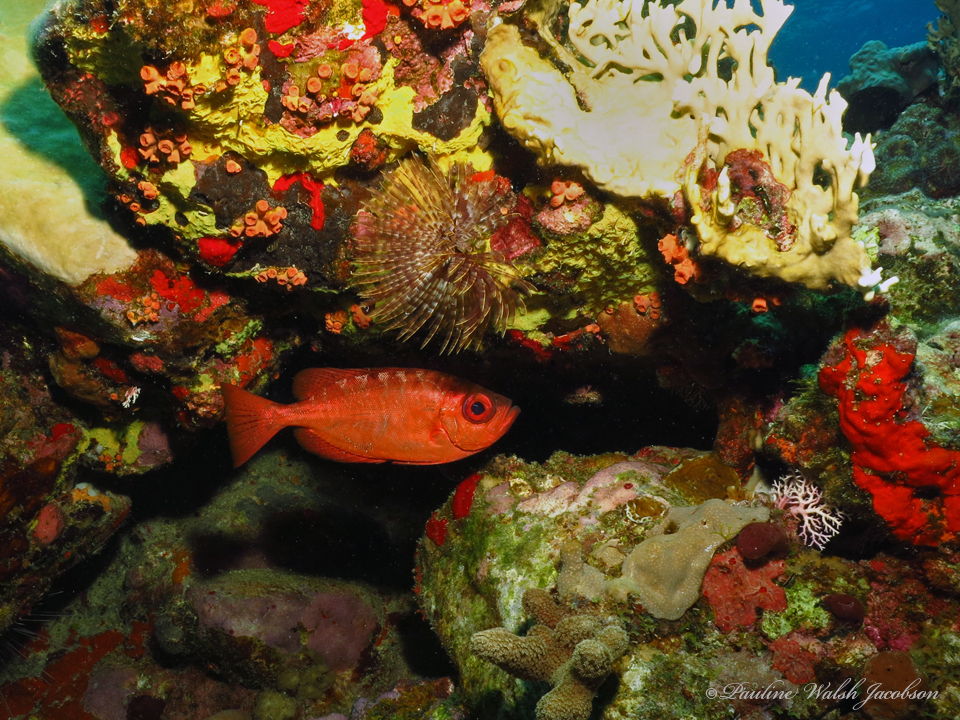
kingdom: Animalia
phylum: Chordata
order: Perciformes
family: Priacanthidae
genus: Heteropriacanthus
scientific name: Heteropriacanthus cruentatus
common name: Glasseye
